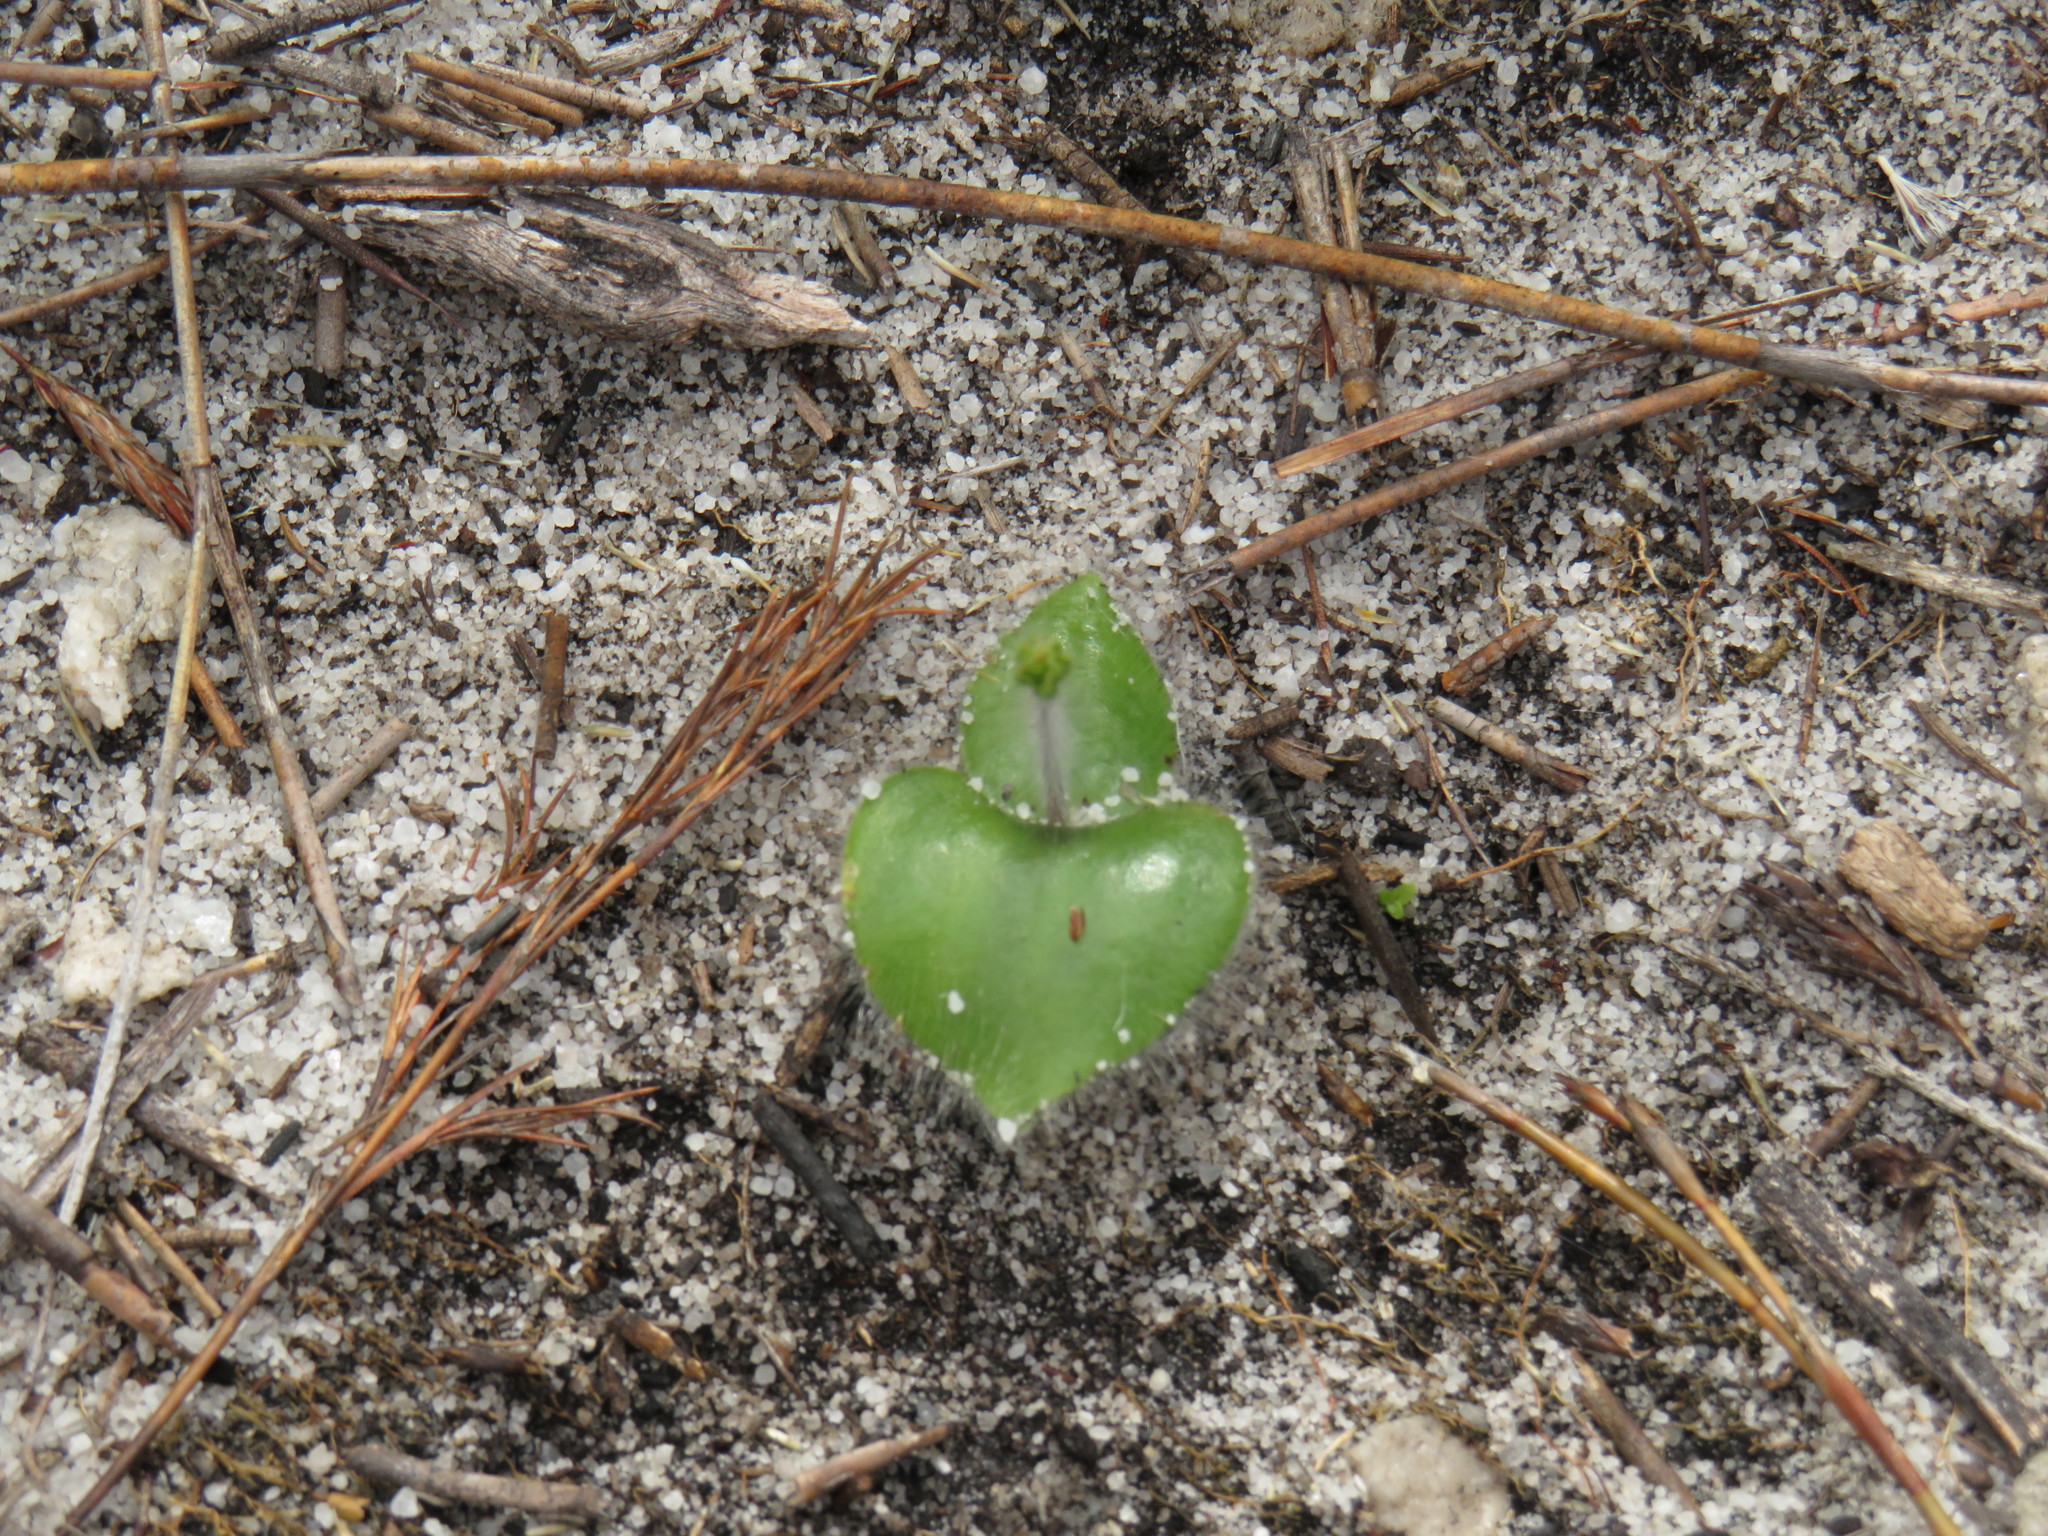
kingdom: Plantae
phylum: Tracheophyta
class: Liliopsida
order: Asparagales
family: Orchidaceae
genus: Holothrix
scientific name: Holothrix villosa
